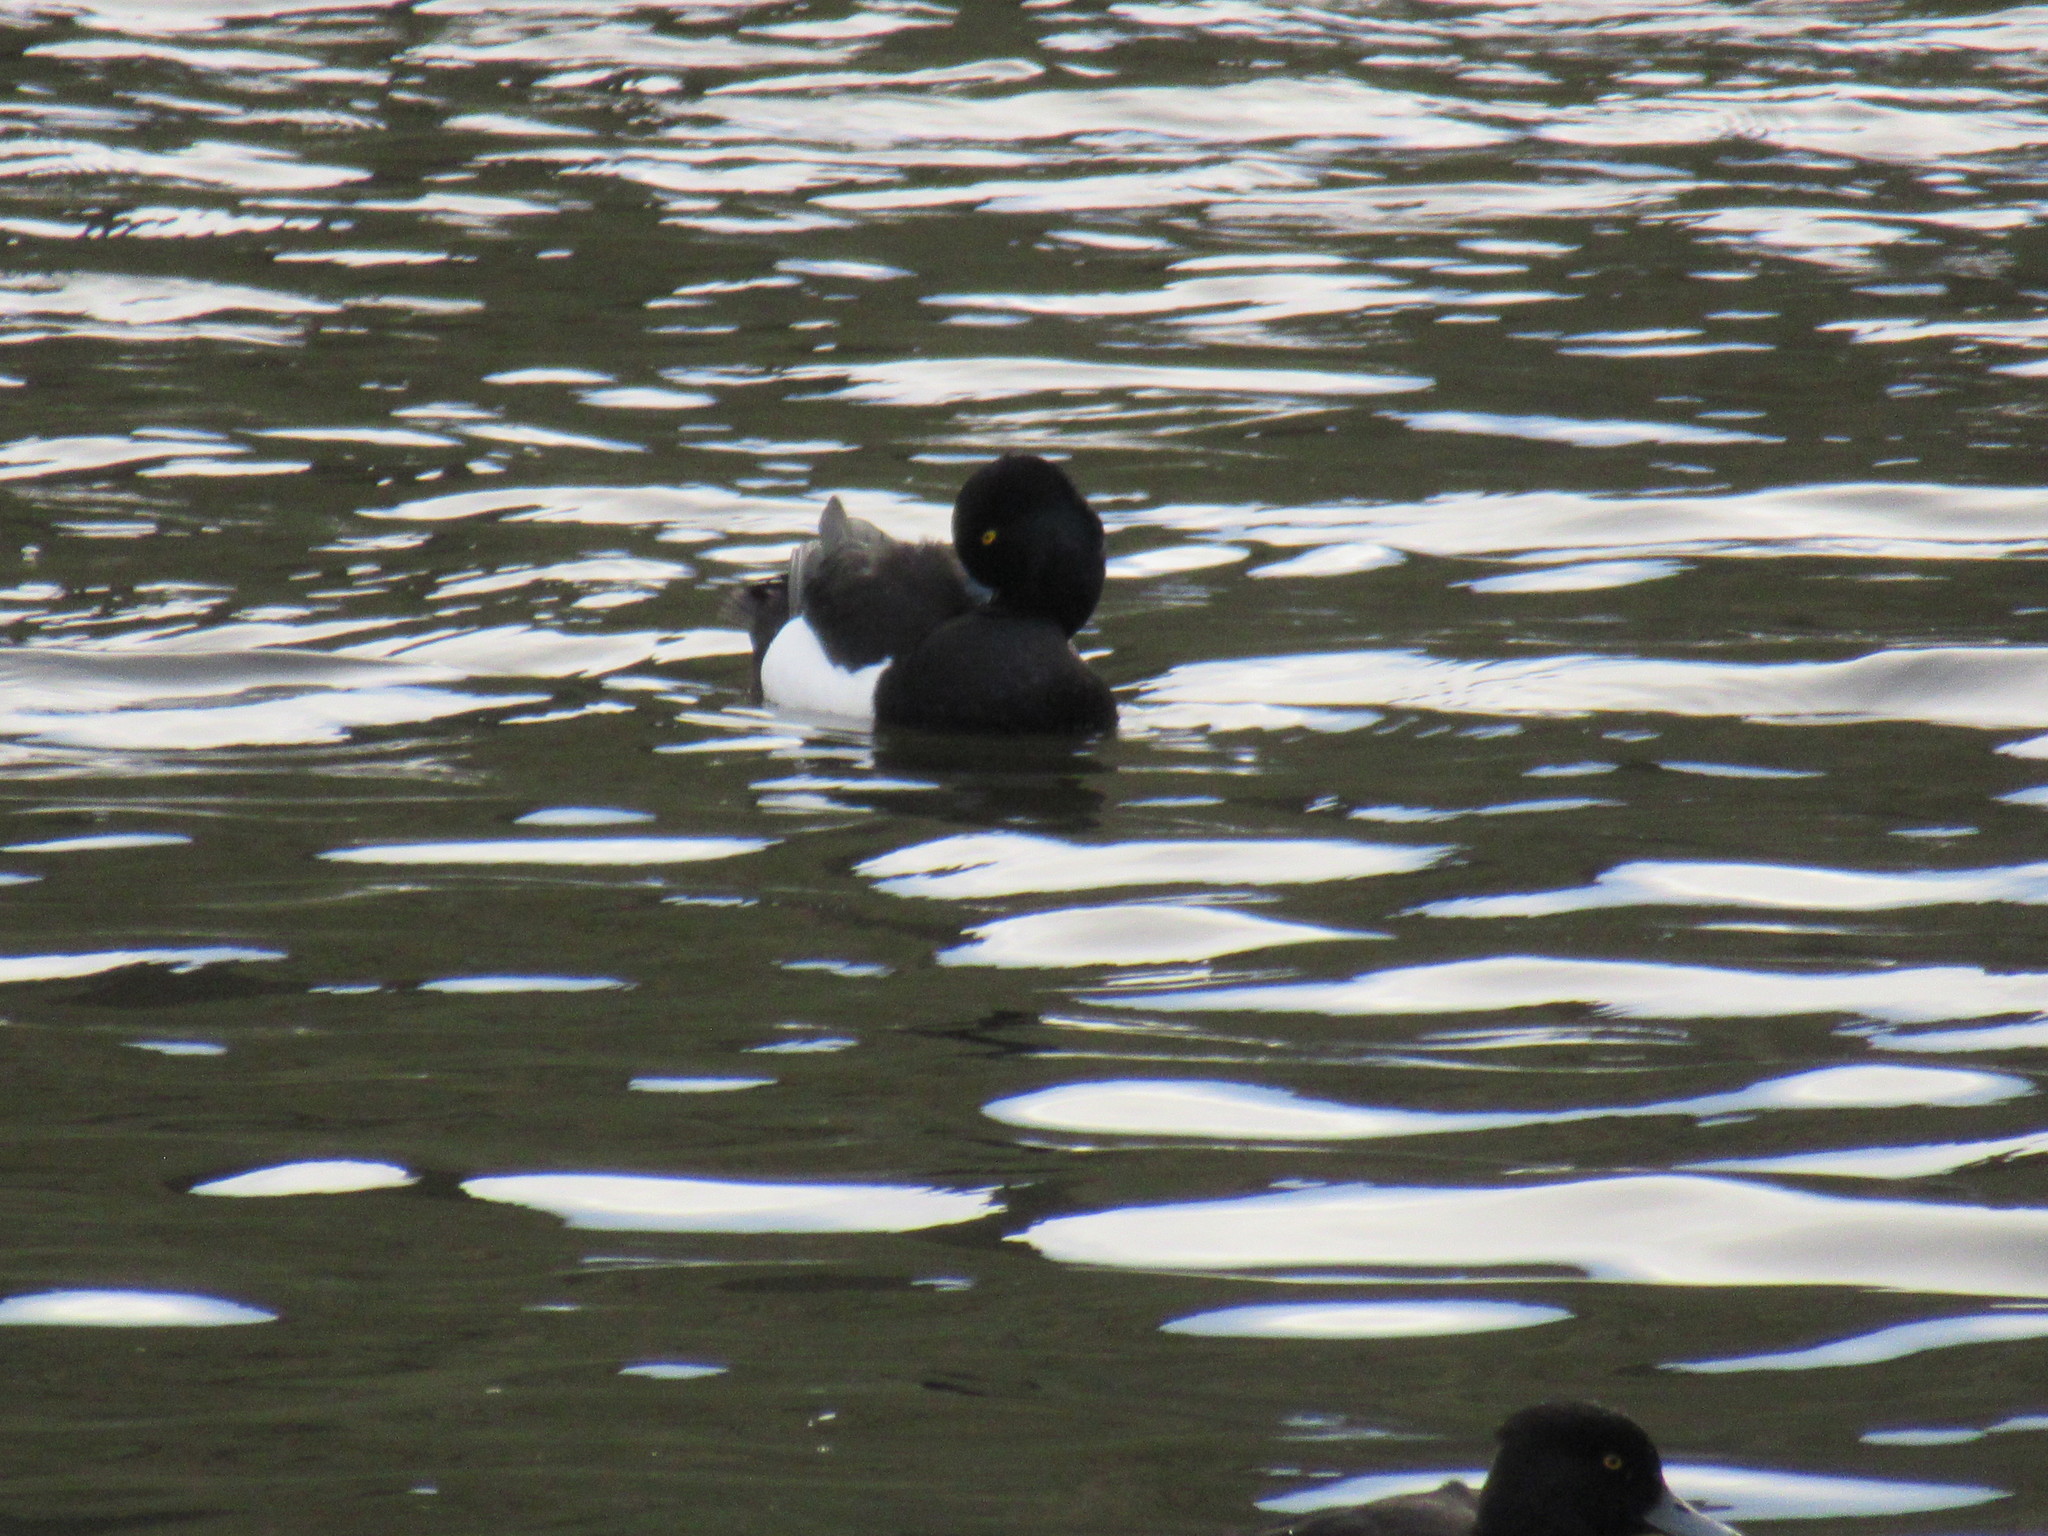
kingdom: Animalia
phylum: Chordata
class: Aves
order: Anseriformes
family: Anatidae
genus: Aythya
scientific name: Aythya fuligula
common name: Tufted duck
